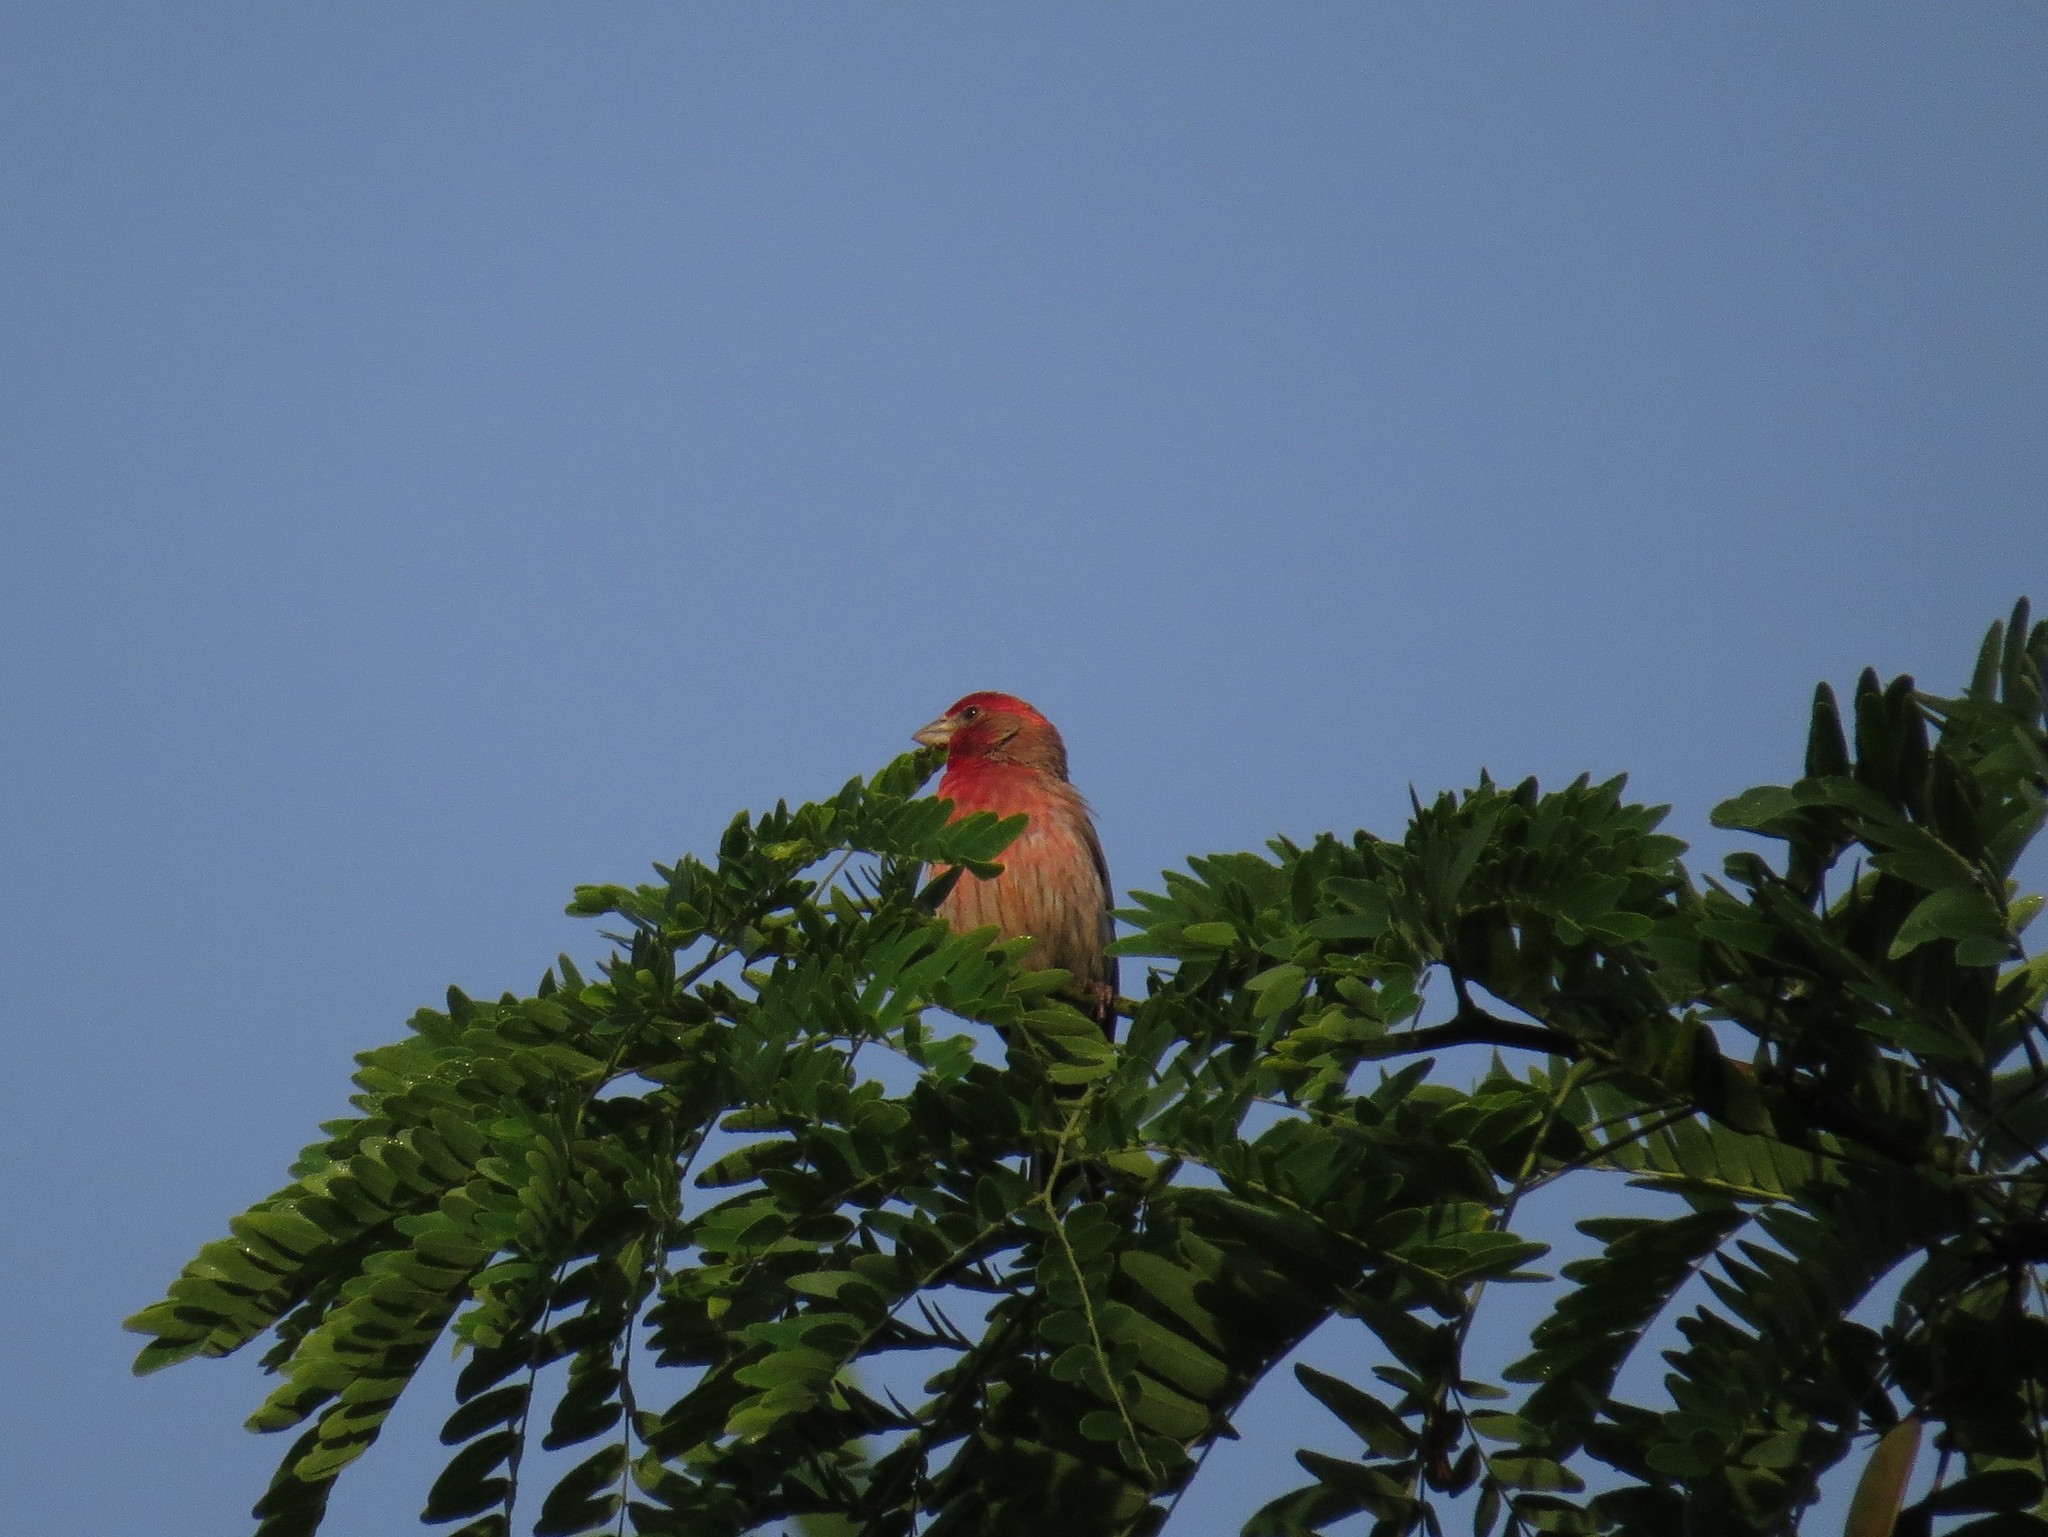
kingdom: Animalia
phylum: Chordata
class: Aves
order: Passeriformes
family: Fringillidae
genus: Haemorhous
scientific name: Haemorhous mexicanus
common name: House finch
